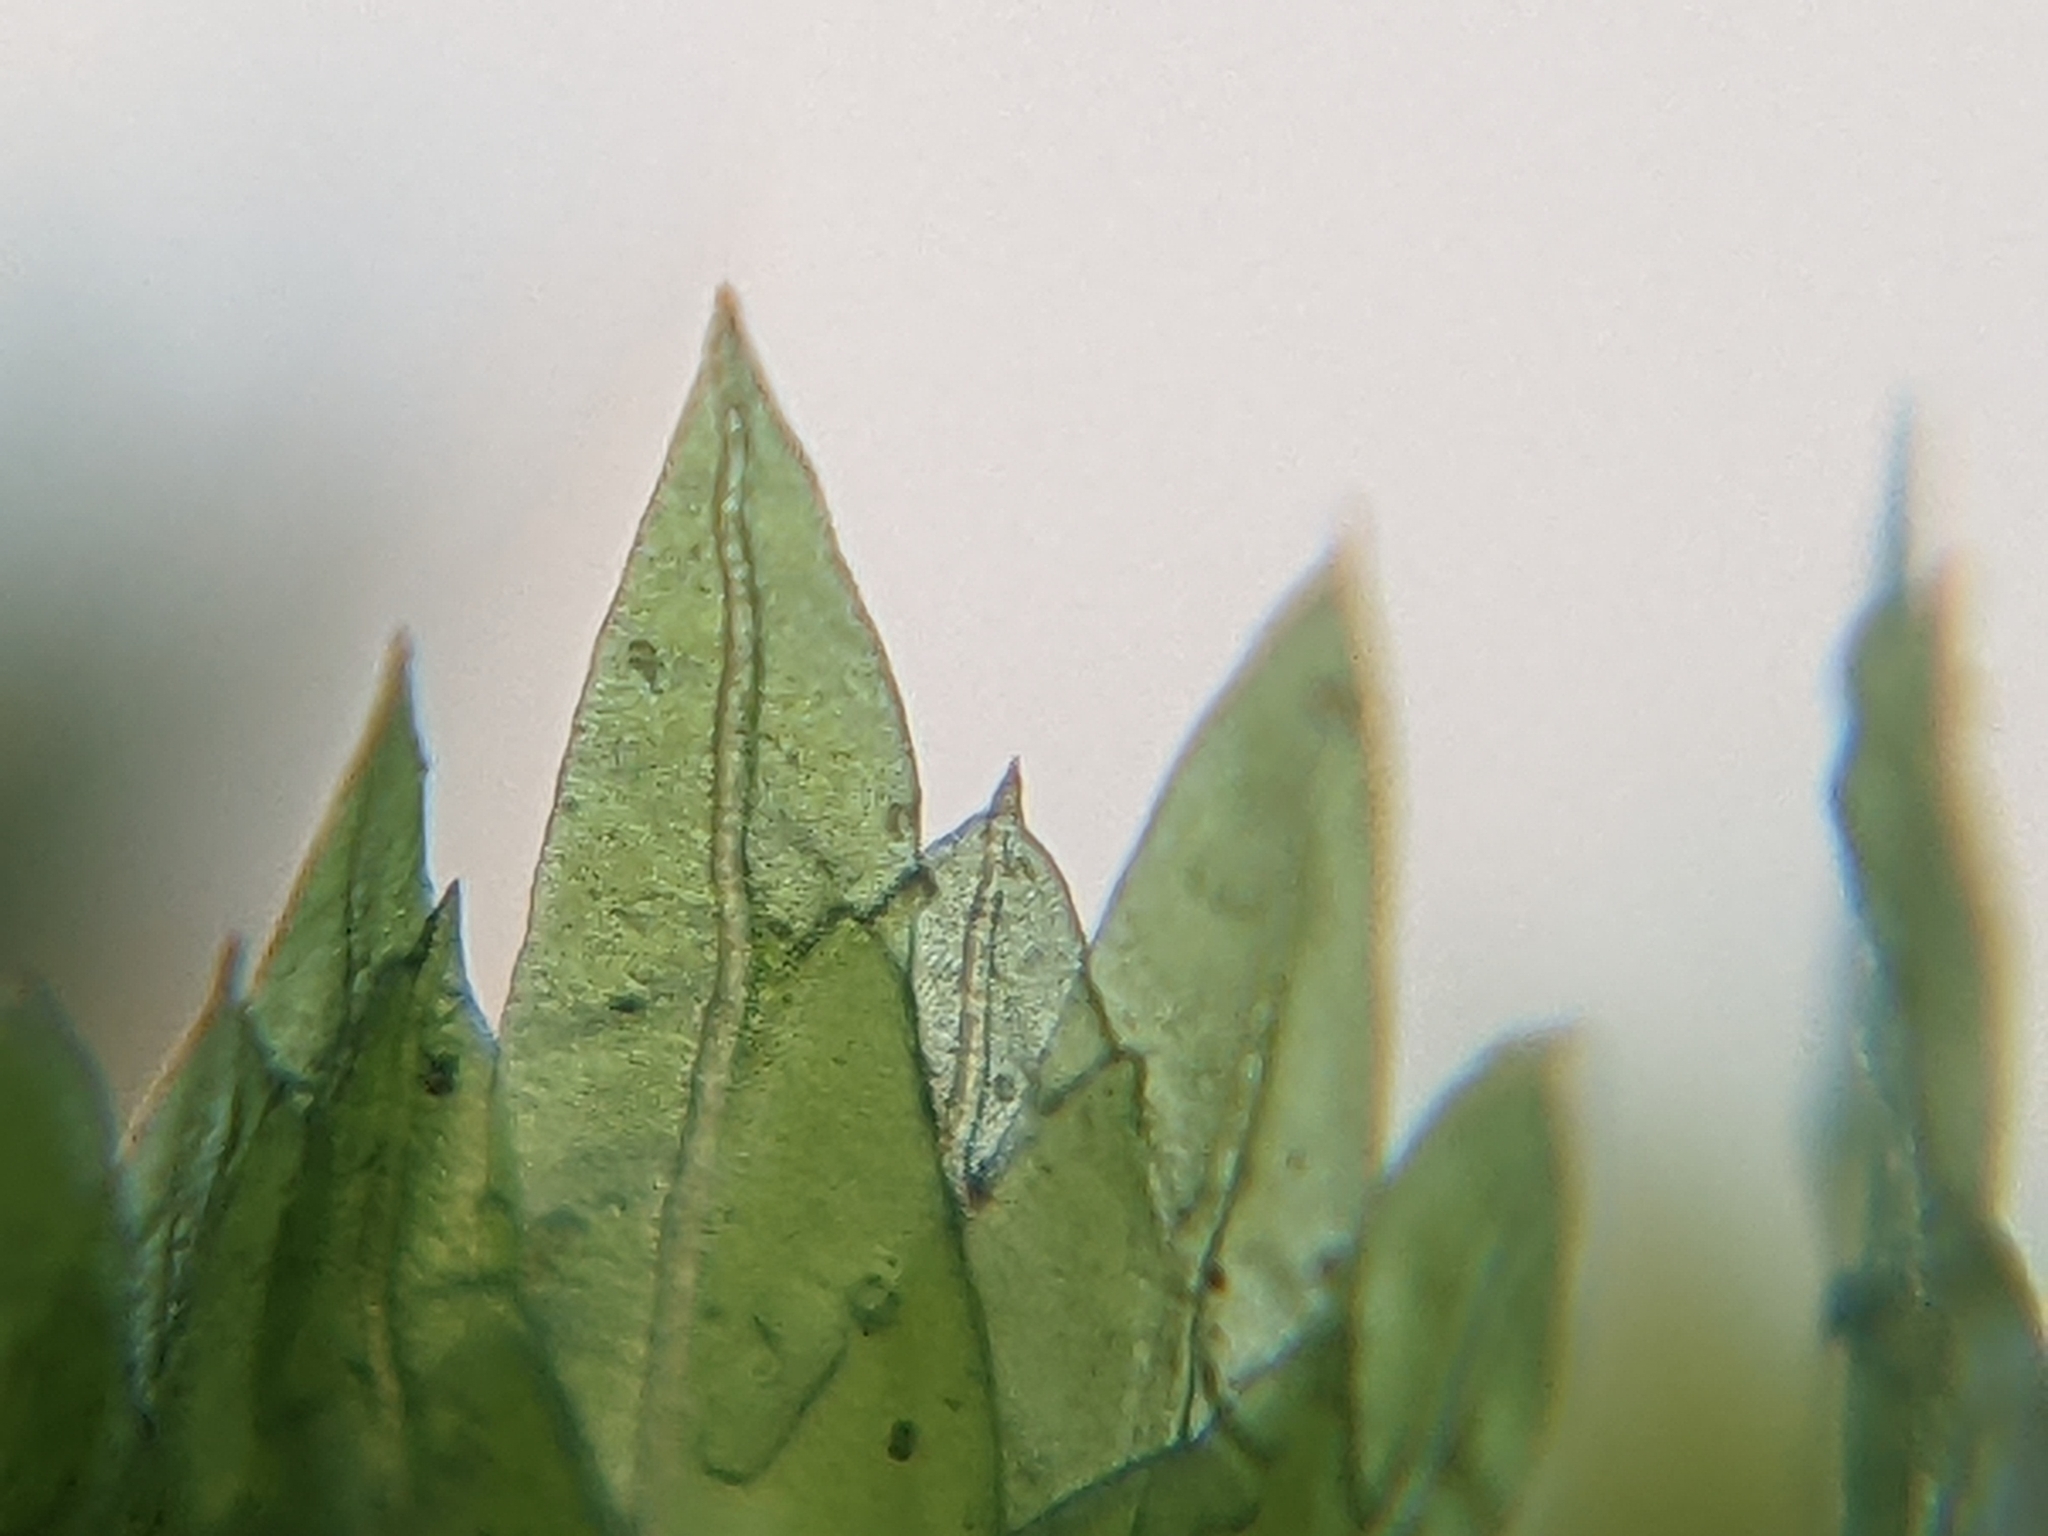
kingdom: Plantae
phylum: Bryophyta
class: Bryopsida
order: Dicranales
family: Fissidentaceae
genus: Fissidens
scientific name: Fissidens taxifolius
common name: Yew-leaved pocket moss
